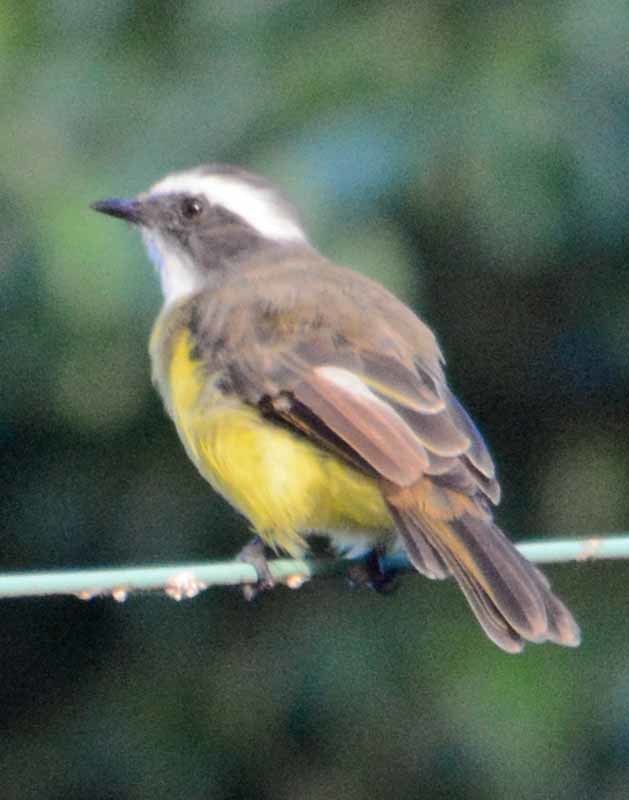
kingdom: Animalia
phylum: Chordata
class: Aves
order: Passeriformes
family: Tyrannidae
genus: Myiozetetes
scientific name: Myiozetetes similis
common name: Social flycatcher
